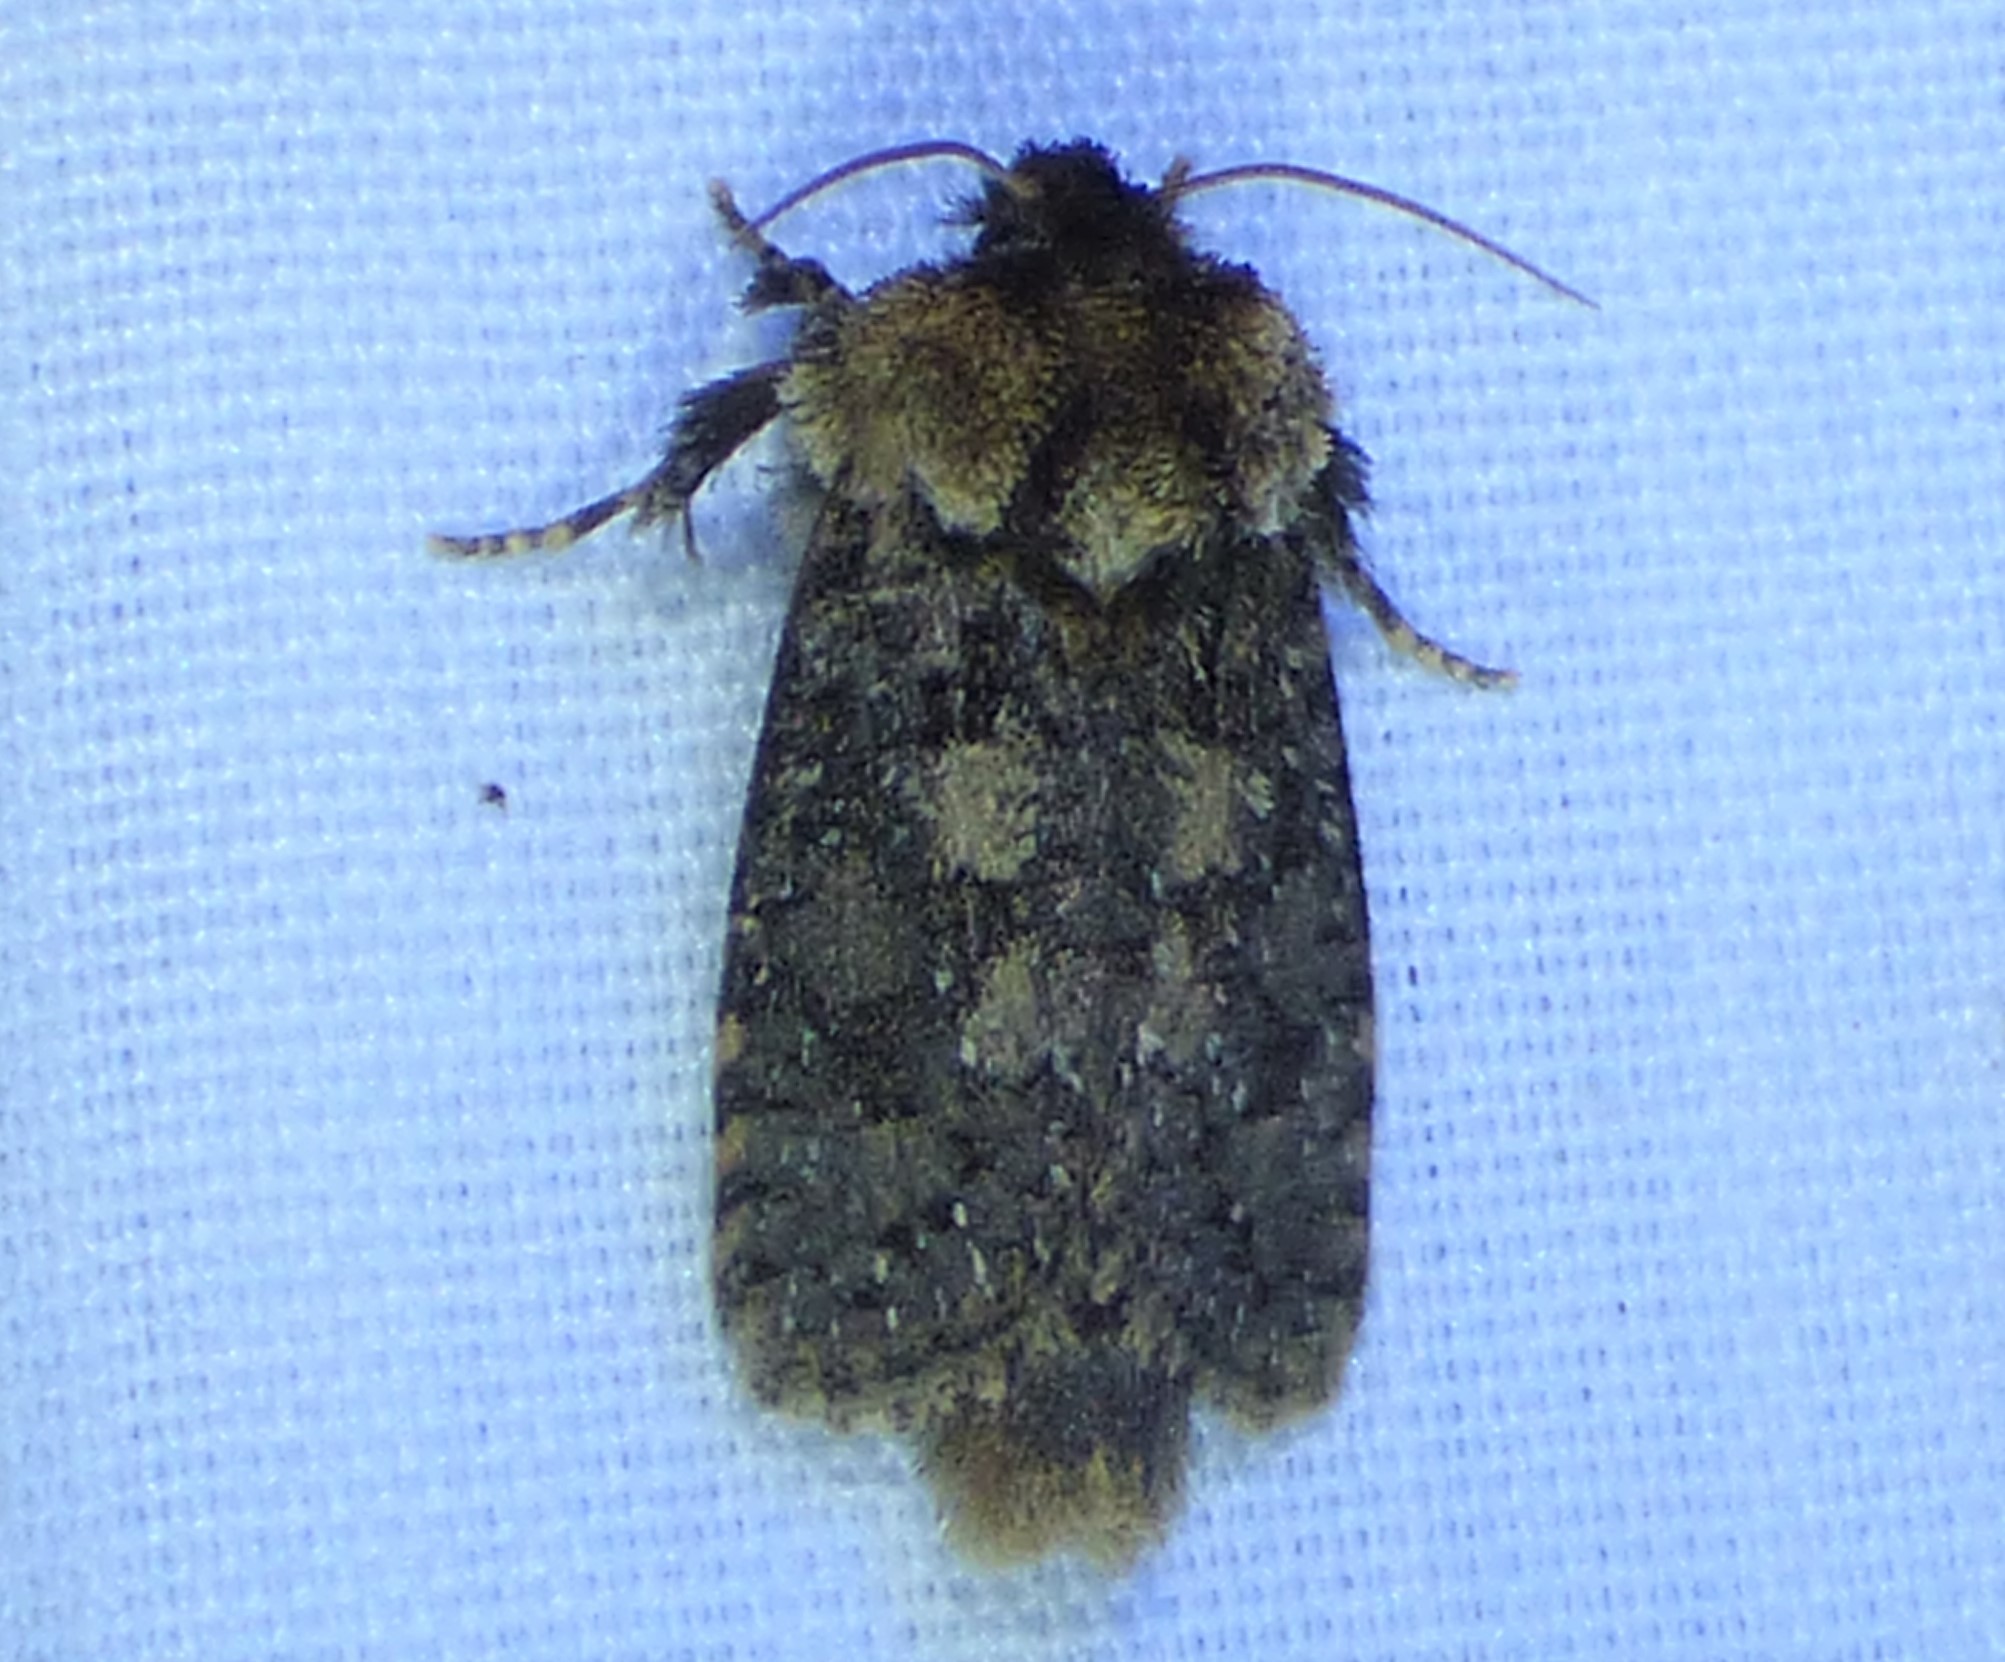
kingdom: Animalia
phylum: Arthropoda
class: Insecta
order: Lepidoptera
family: Tineidae
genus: Acrolophus
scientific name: Acrolophus arcanella
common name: Arcane grass tubeworm moth
